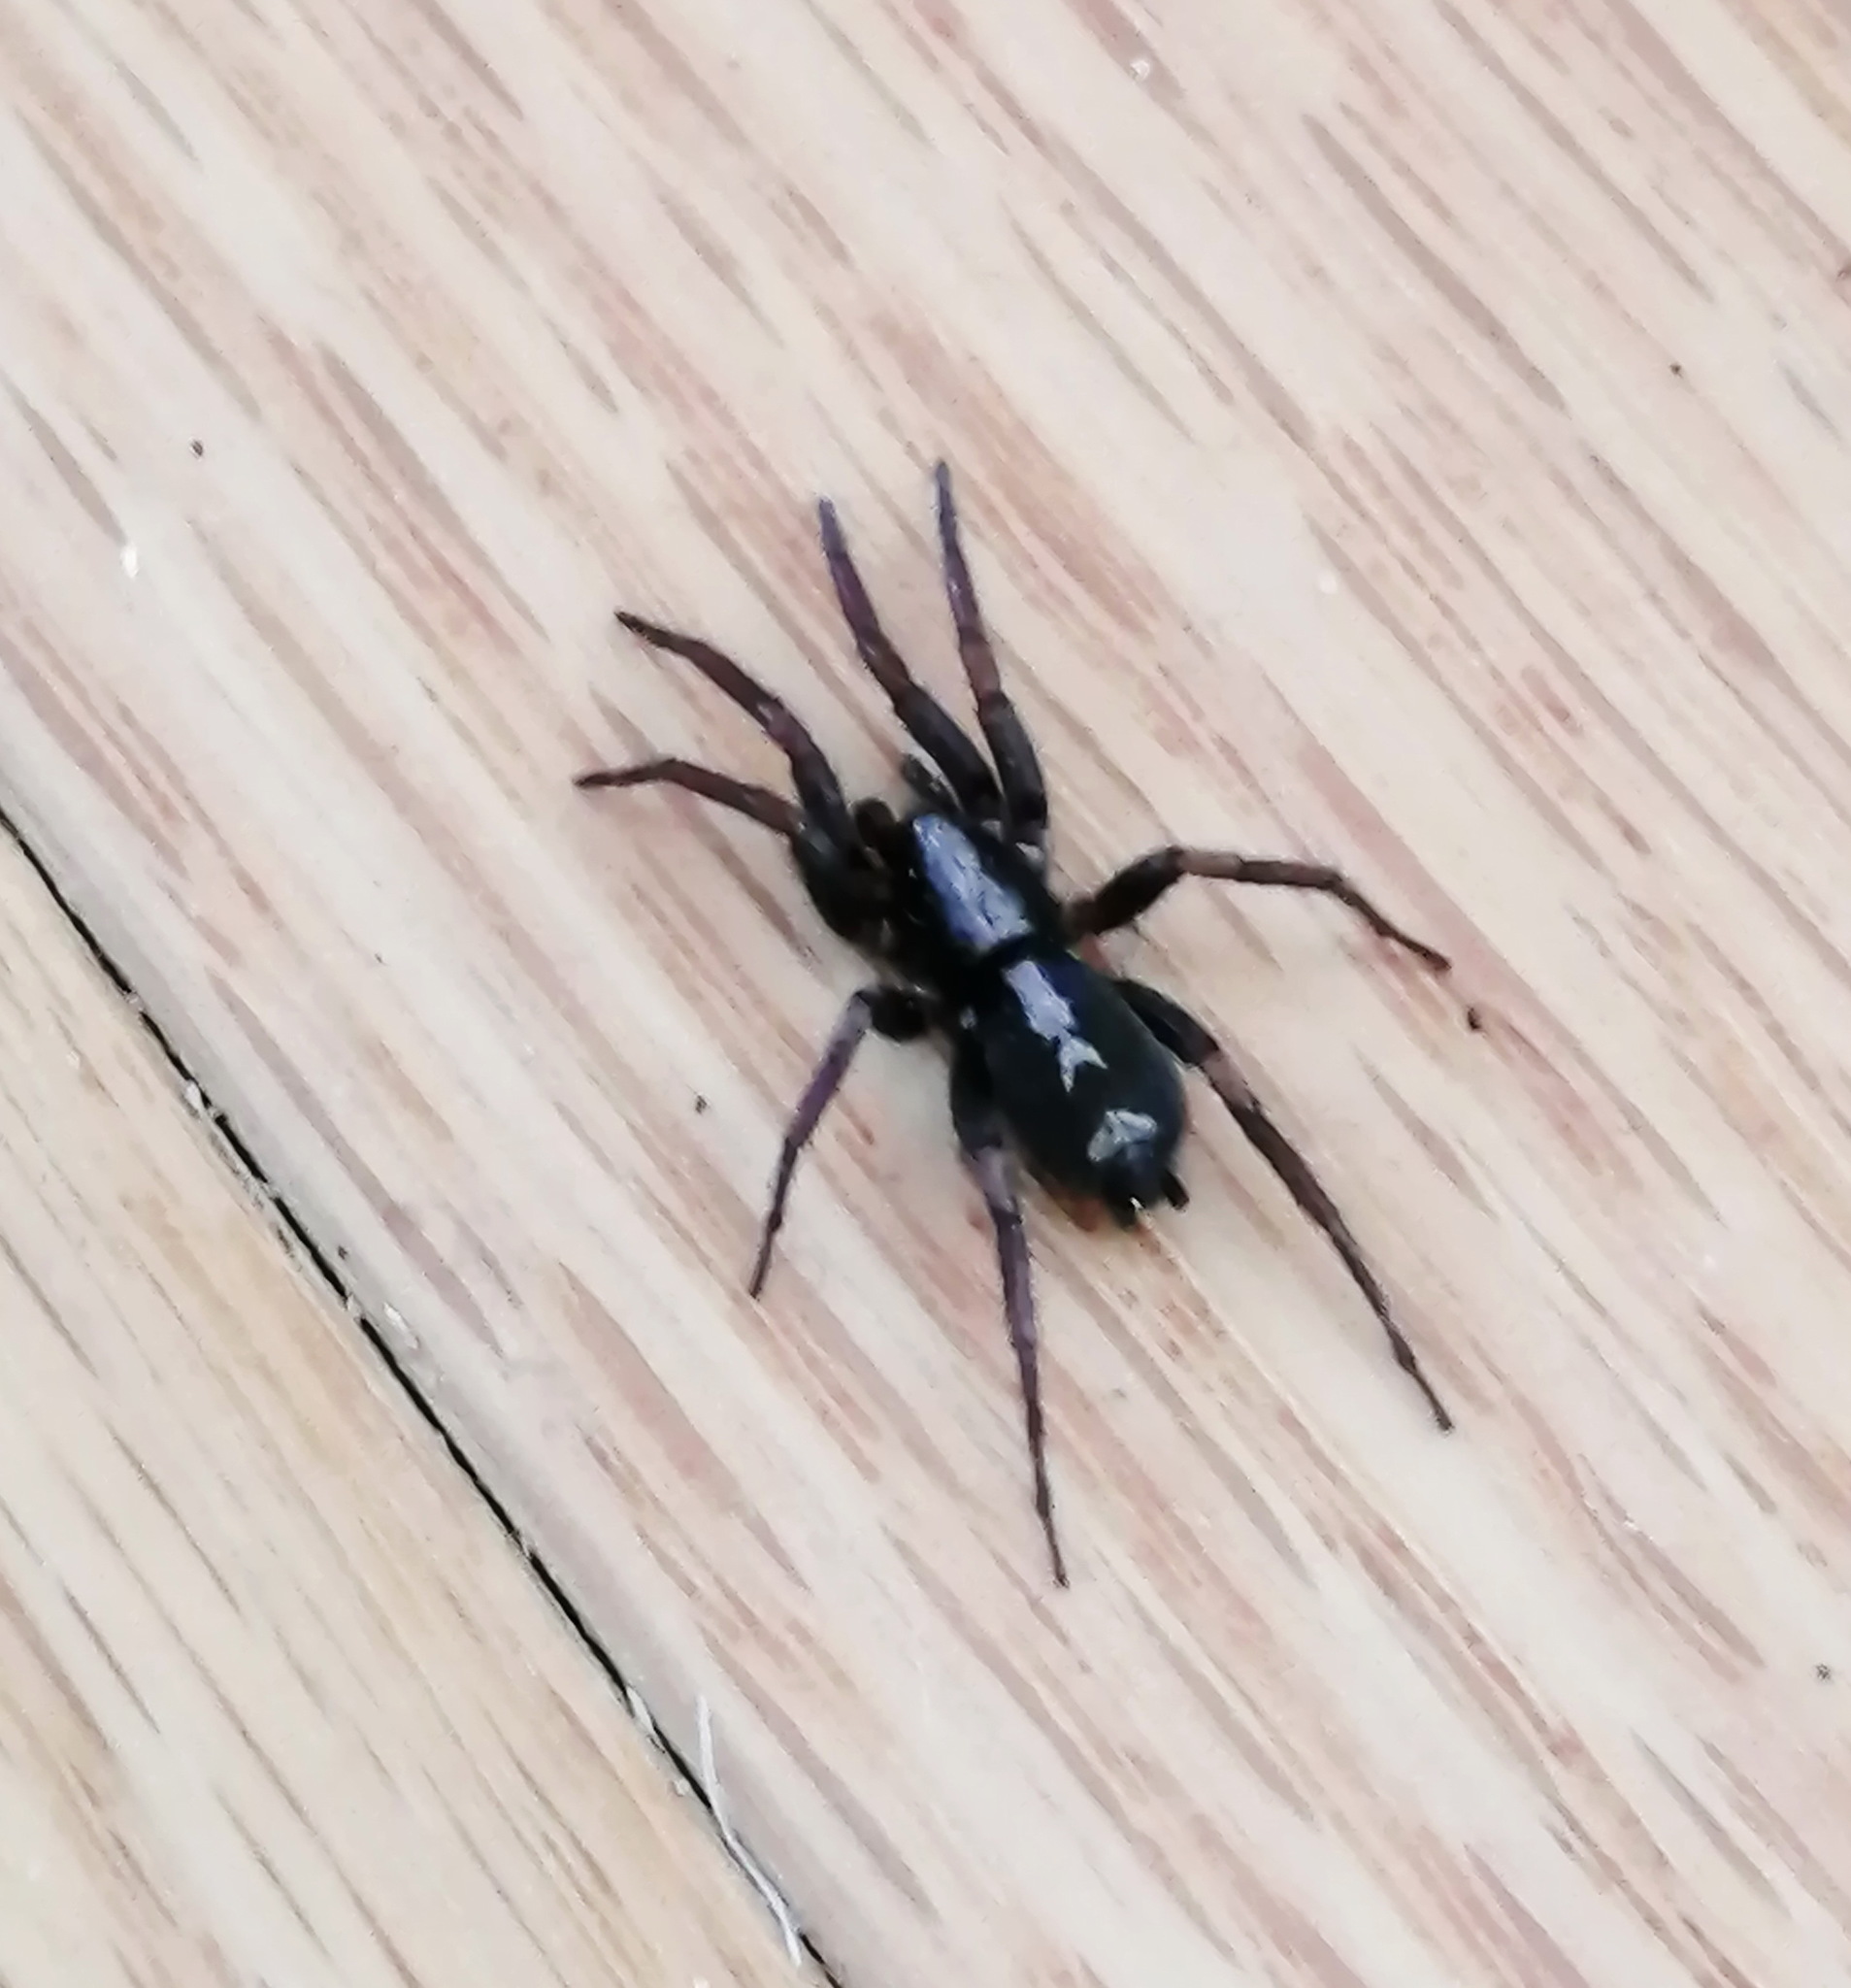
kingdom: Animalia
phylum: Arthropoda
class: Arachnida
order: Araneae
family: Gnaphosidae
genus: Herpyllus
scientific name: Herpyllus ecclesiasticus
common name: Eastern parson spider
